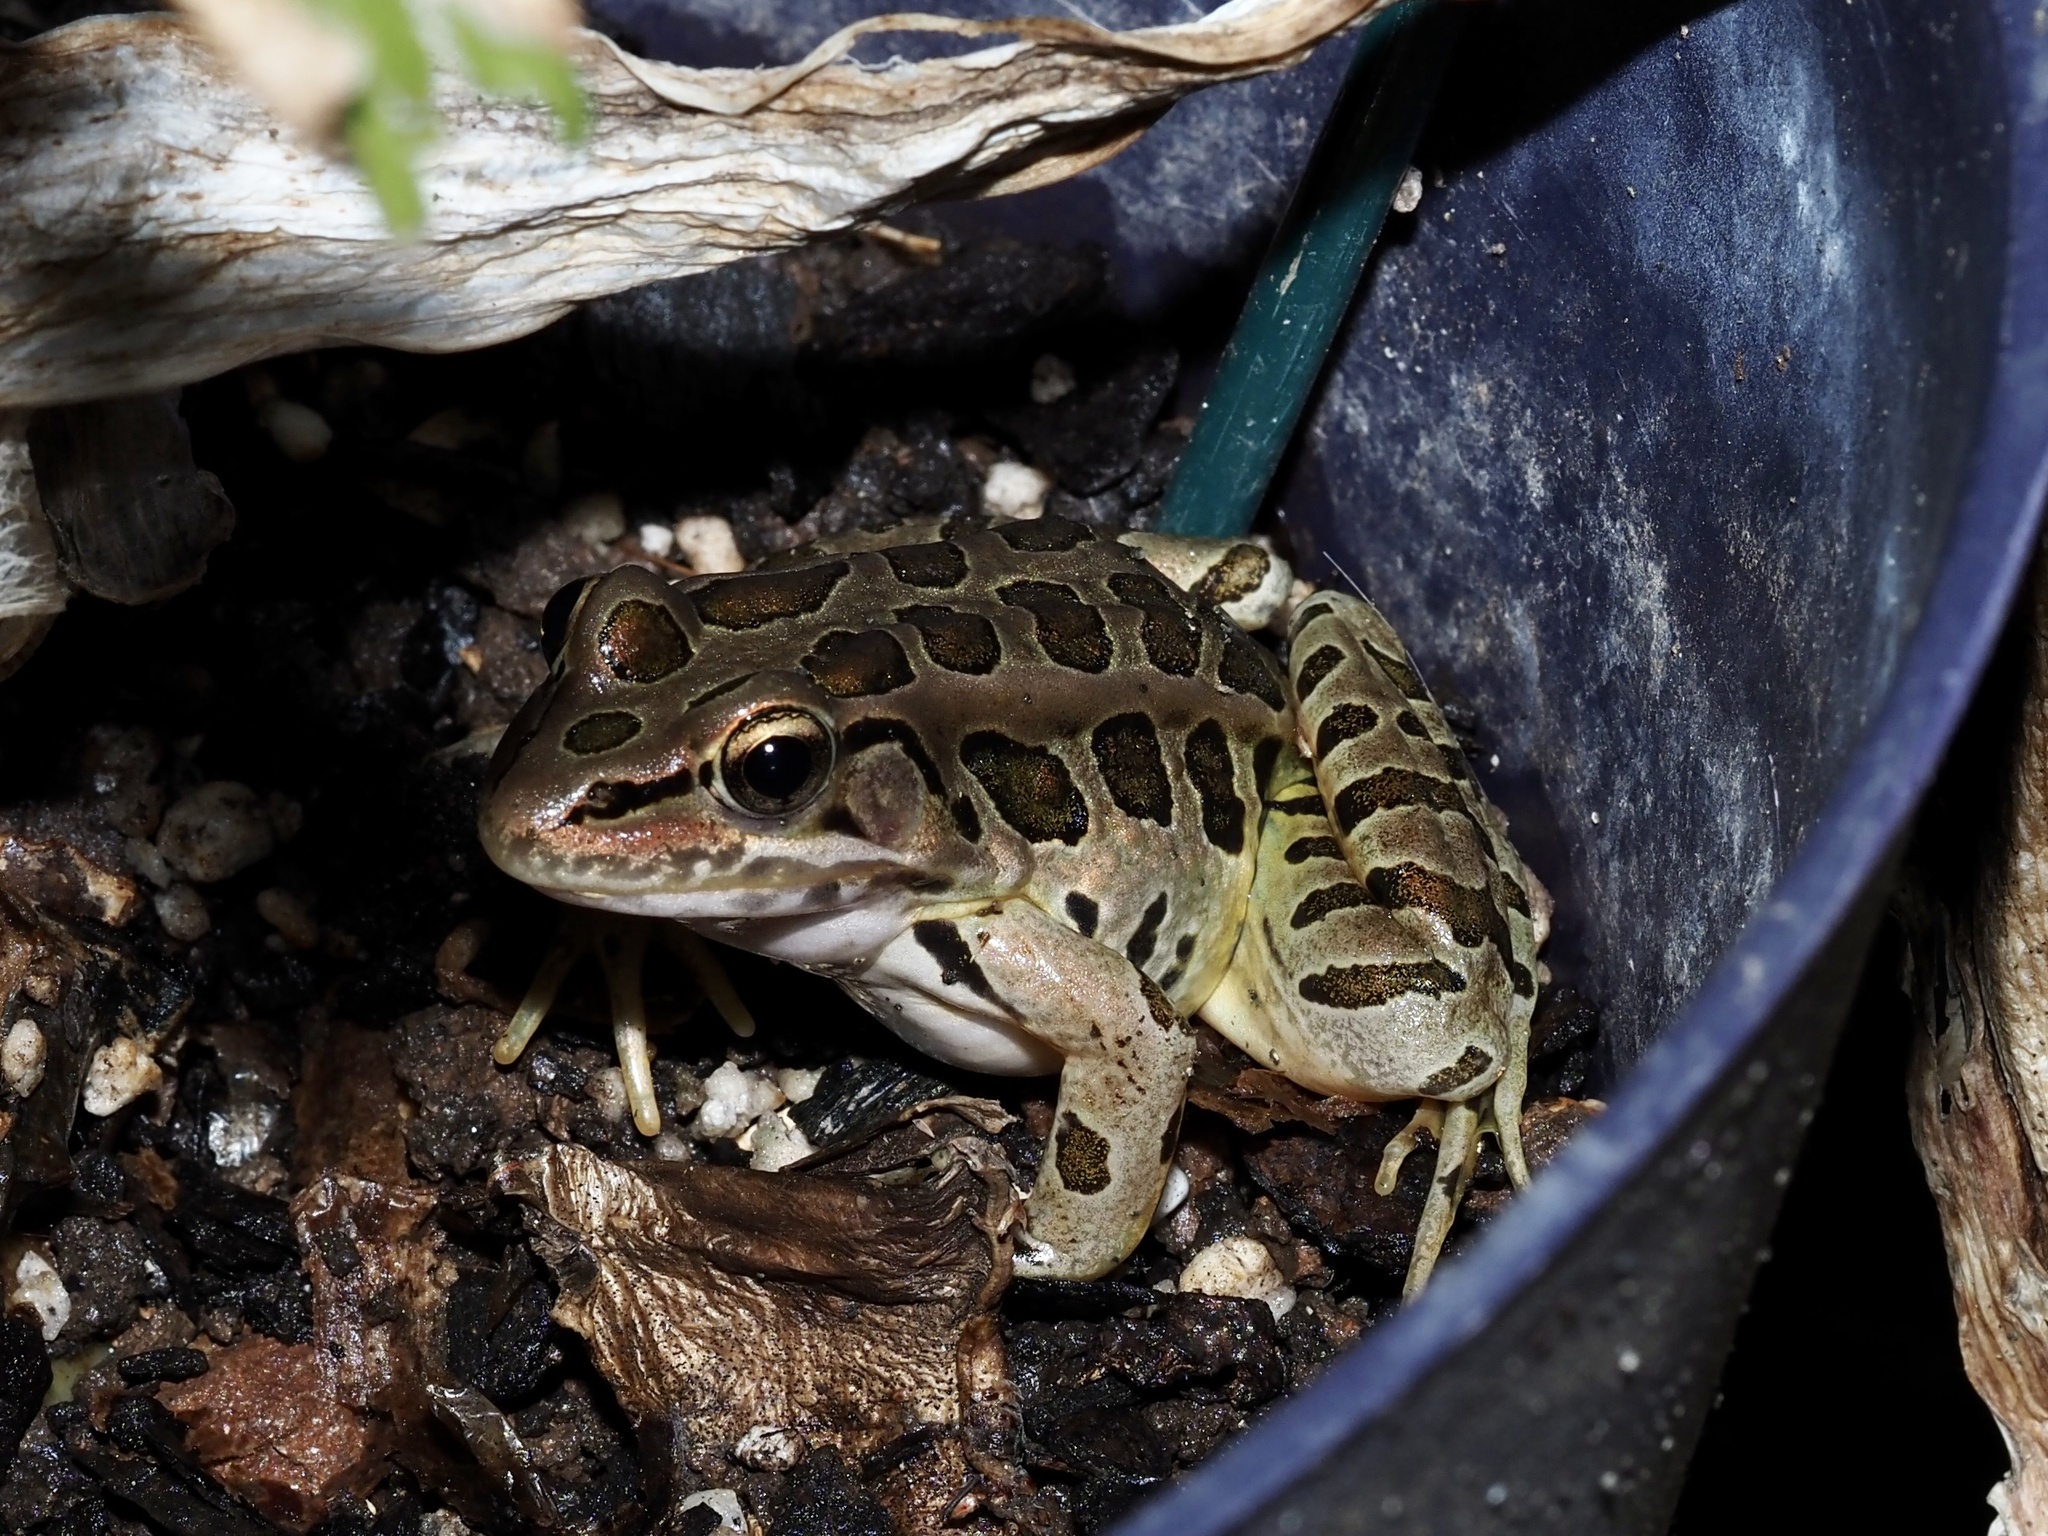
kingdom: Animalia
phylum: Chordata
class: Amphibia
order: Anura
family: Ranidae
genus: Lithobates
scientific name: Lithobates palustris
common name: Pickerel frog
